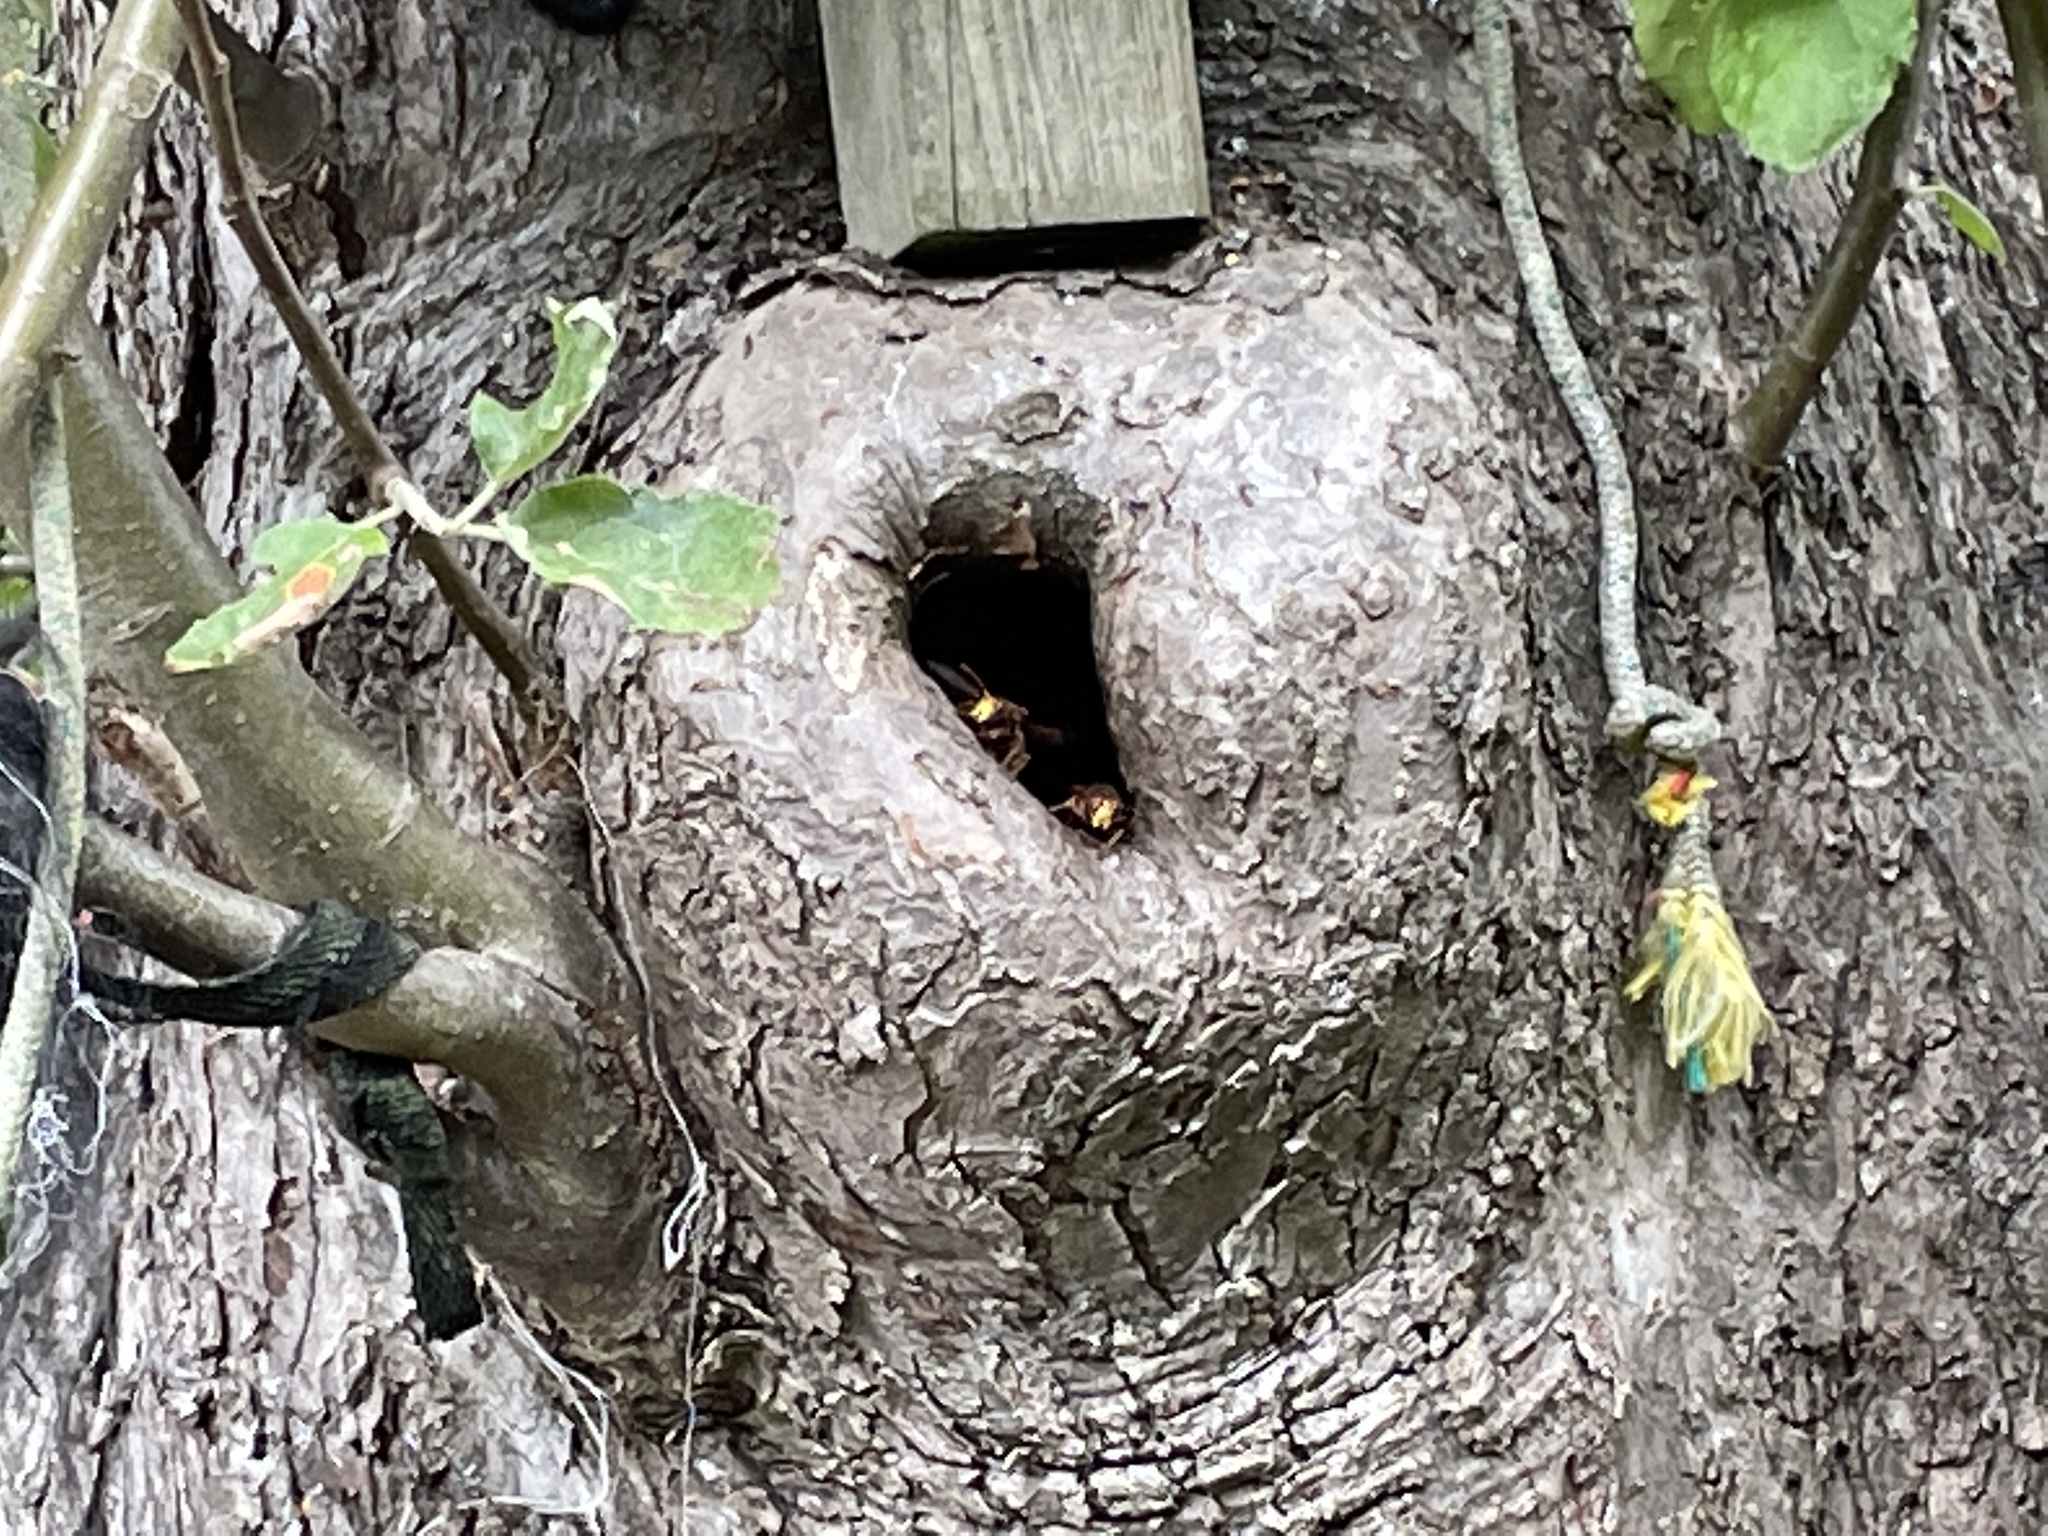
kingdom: Animalia
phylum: Arthropoda
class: Insecta
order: Hymenoptera
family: Vespidae
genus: Vespa
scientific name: Vespa crabro
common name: Hornet
